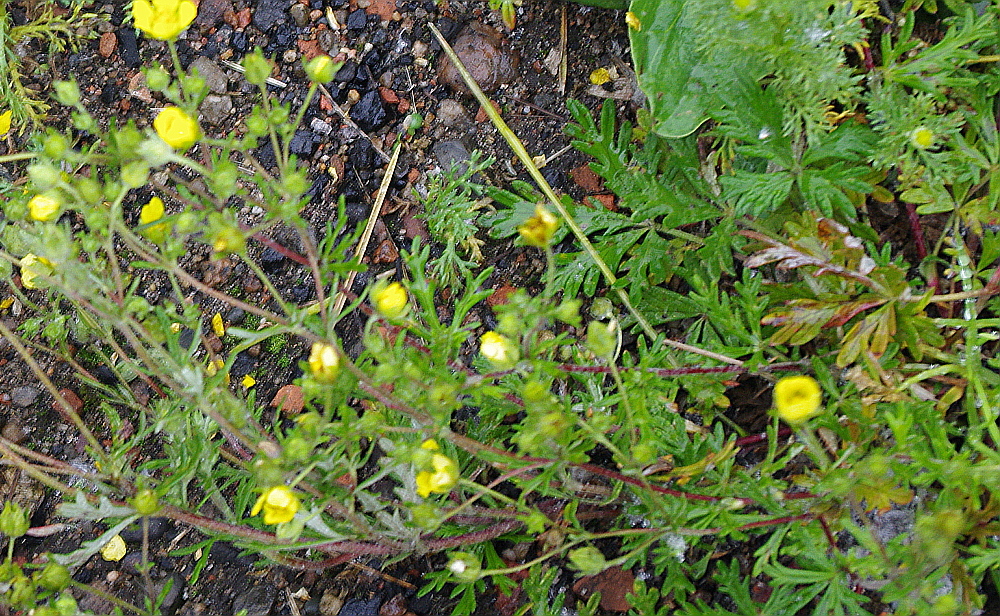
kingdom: Plantae
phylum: Tracheophyta
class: Magnoliopsida
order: Rosales
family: Rosaceae
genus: Potentilla
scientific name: Potentilla argentea
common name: Hoary cinquefoil
